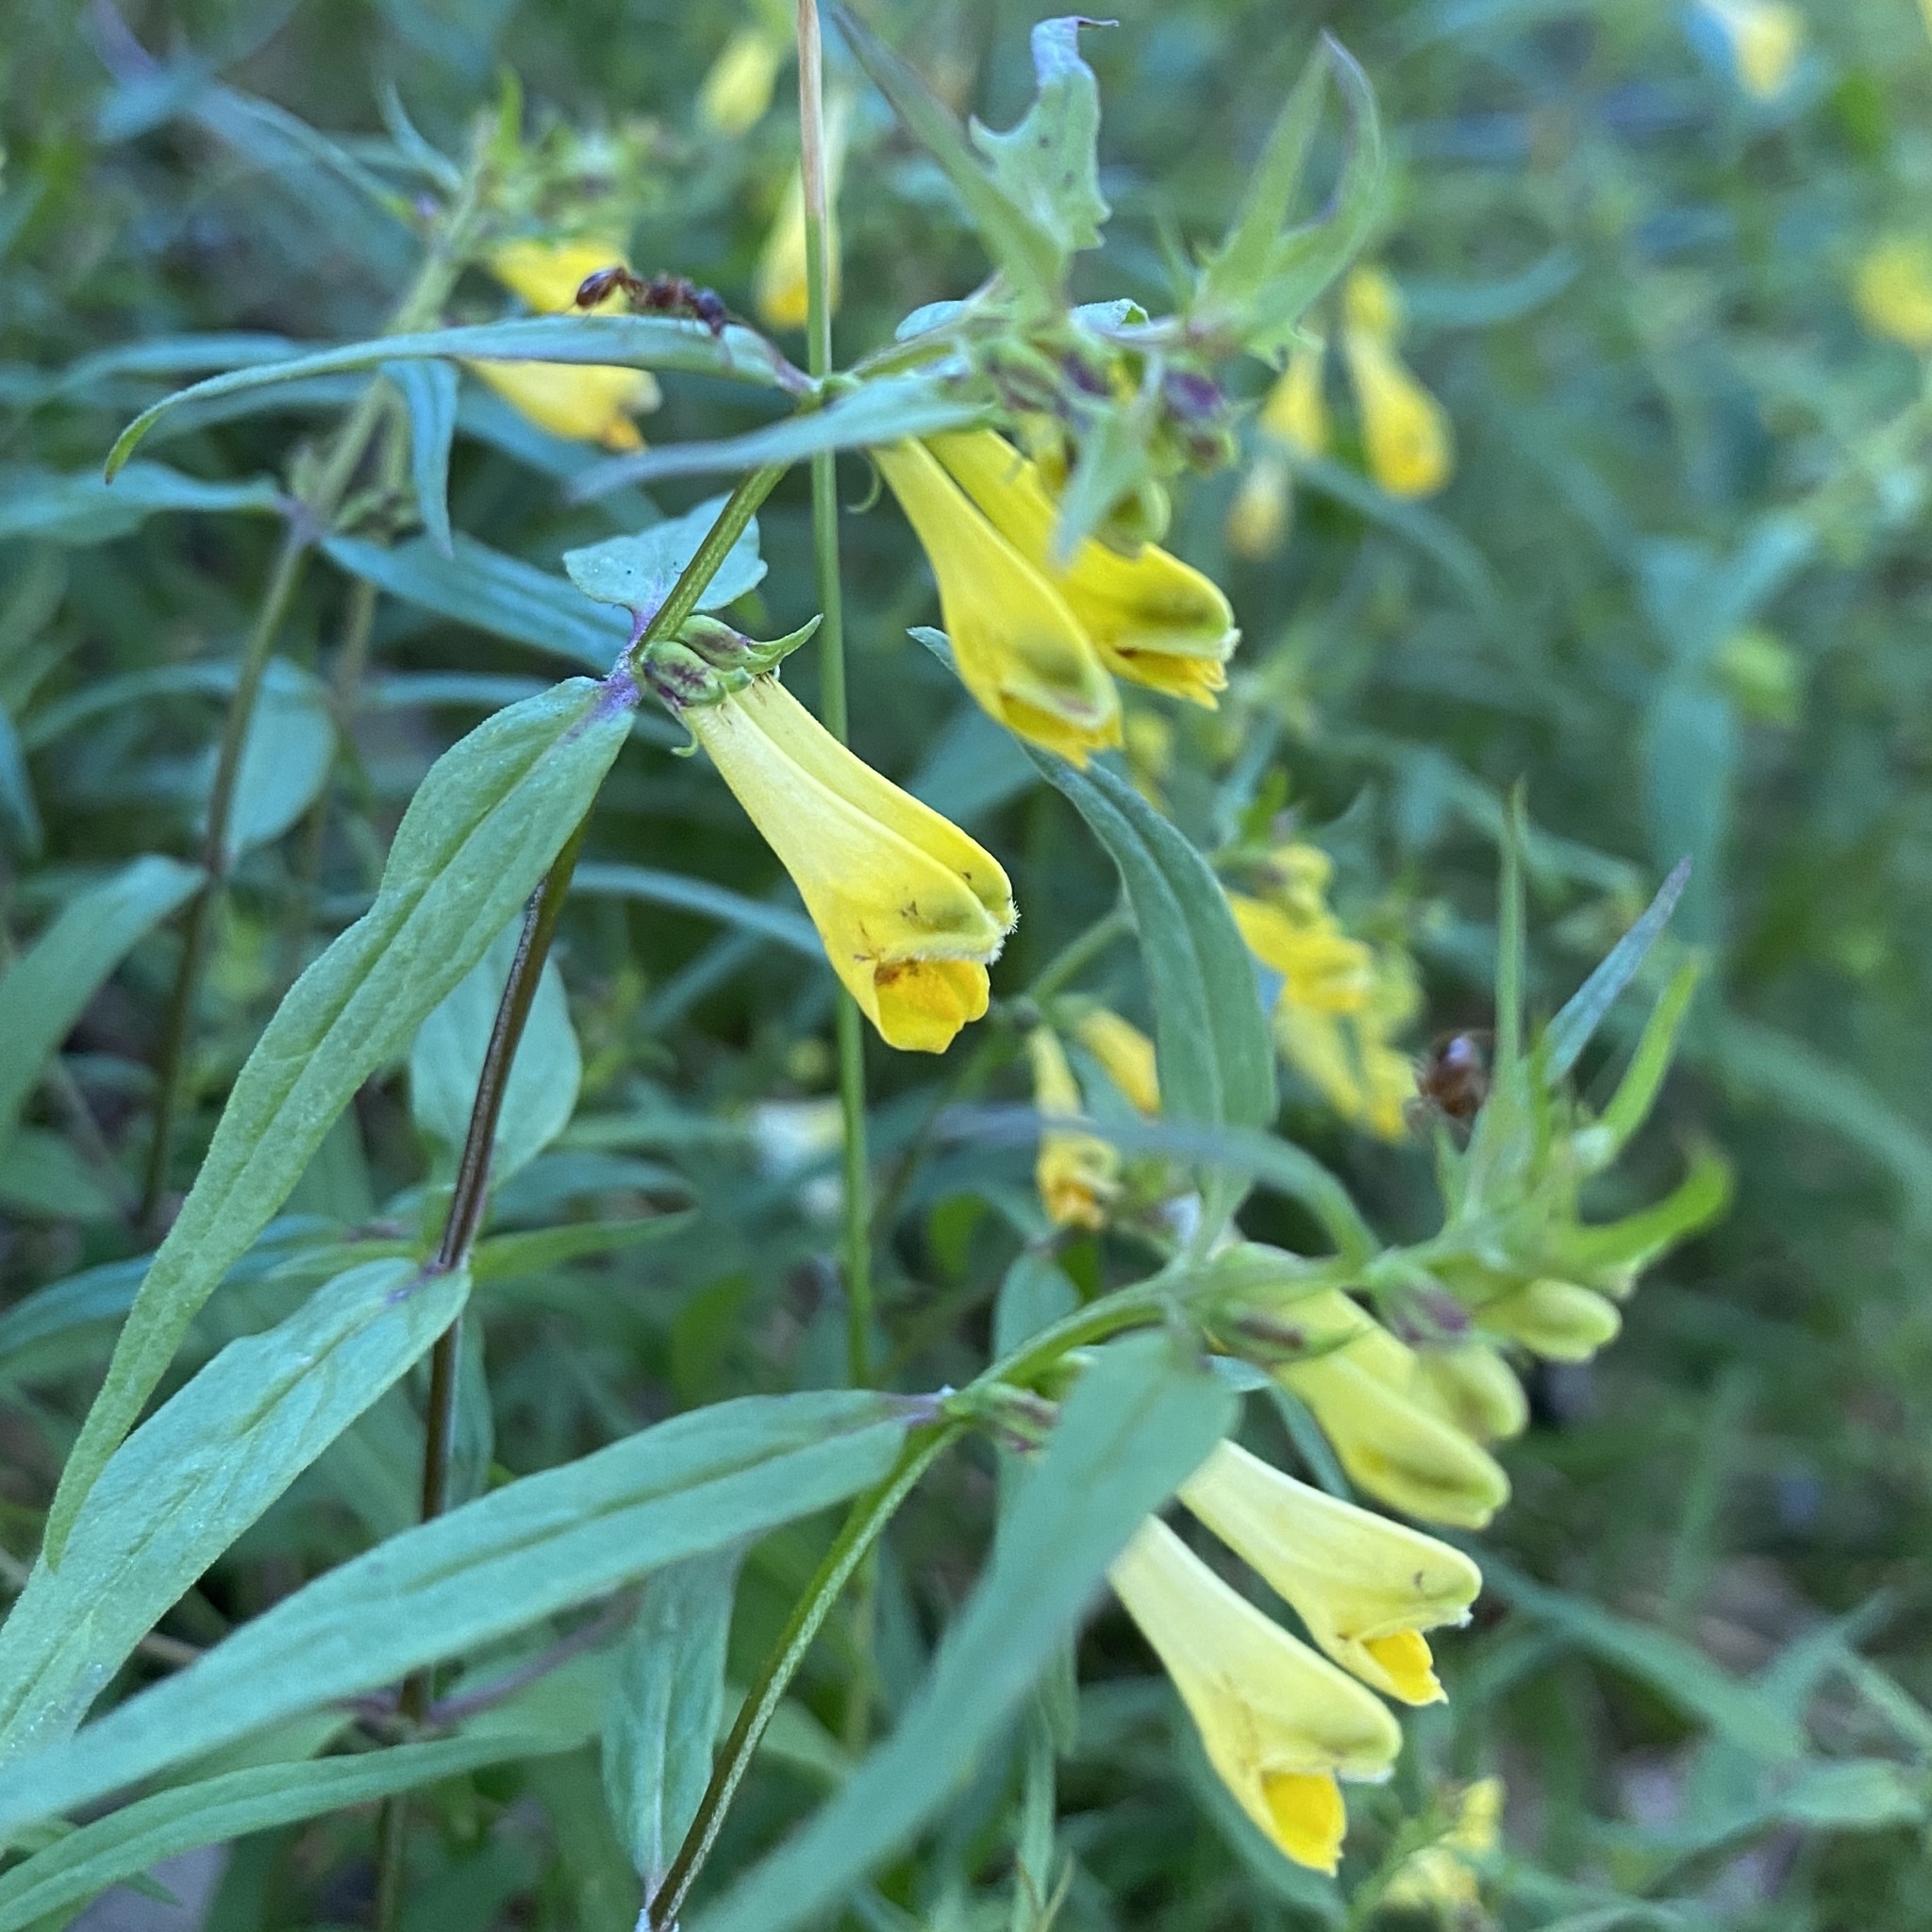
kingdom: Plantae
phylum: Tracheophyta
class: Magnoliopsida
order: Lamiales
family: Orobanchaceae
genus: Melampyrum
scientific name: Melampyrum pratense
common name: Common cow-wheat
